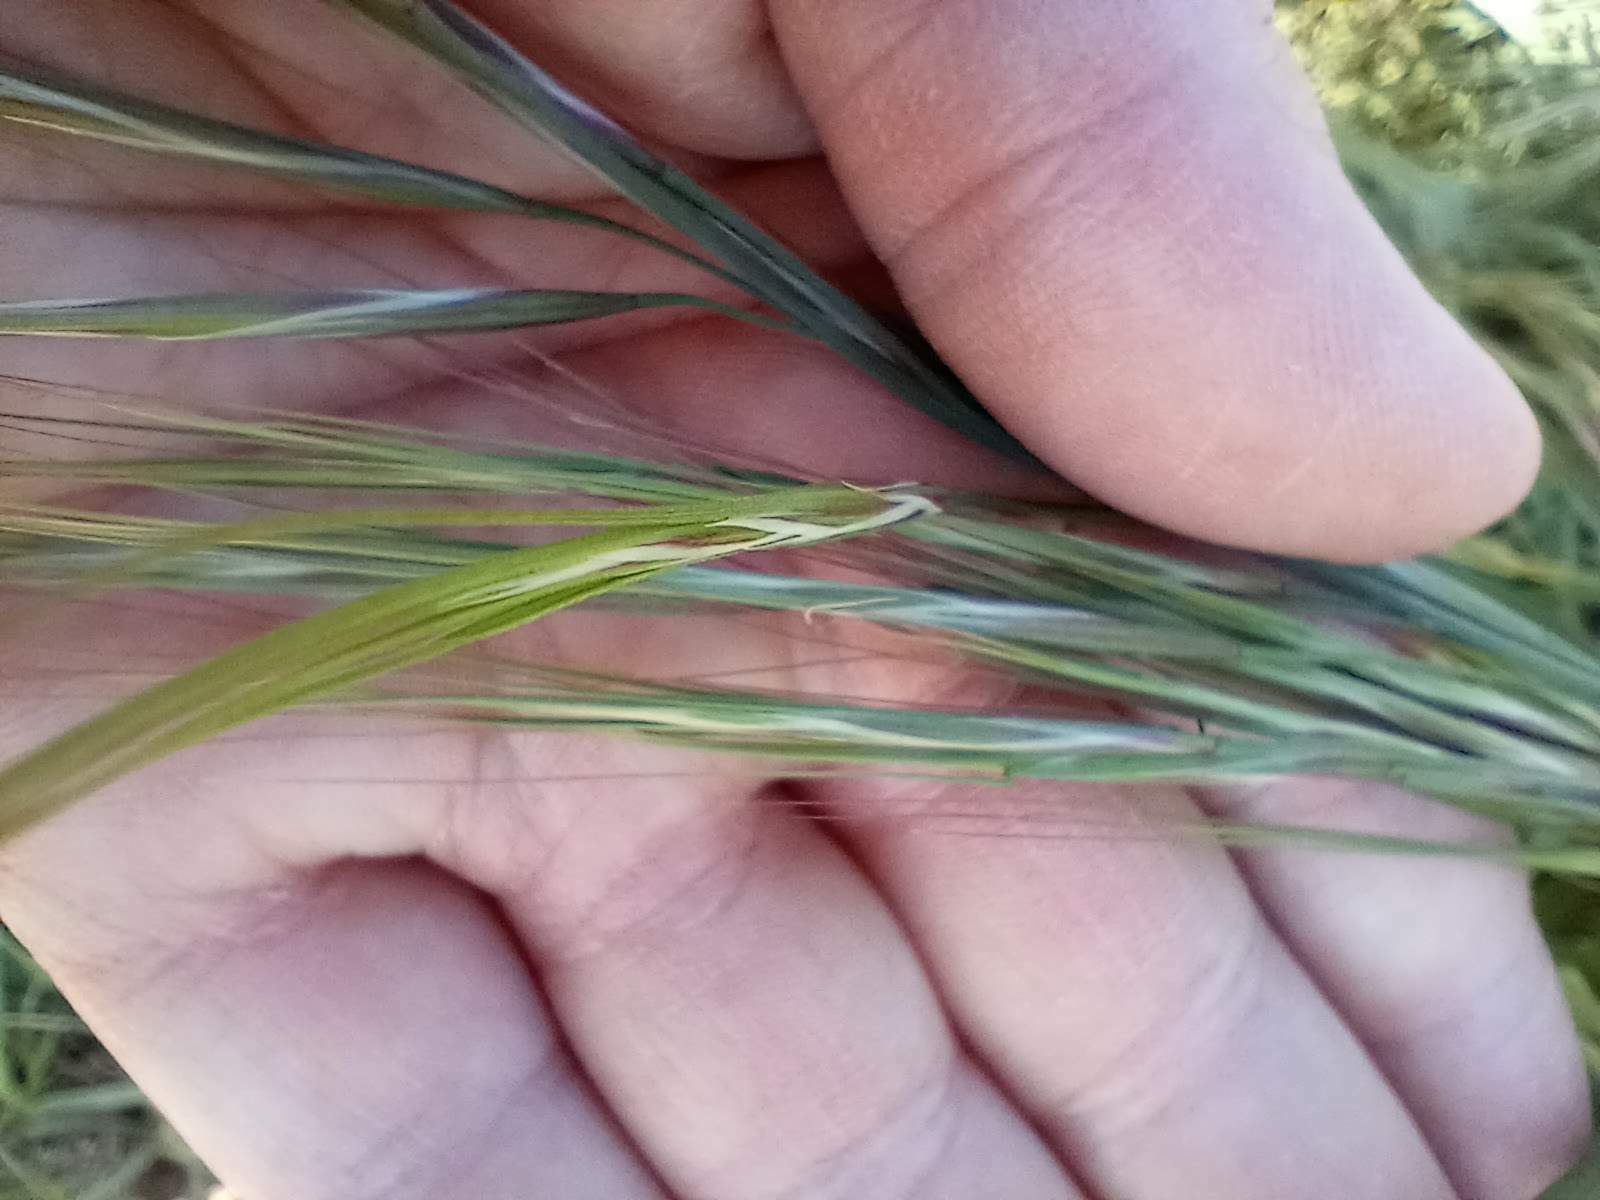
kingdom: Plantae
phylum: Tracheophyta
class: Liliopsida
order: Poales
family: Poaceae
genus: Bromus
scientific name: Bromus diandrus
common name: Ripgut brome
